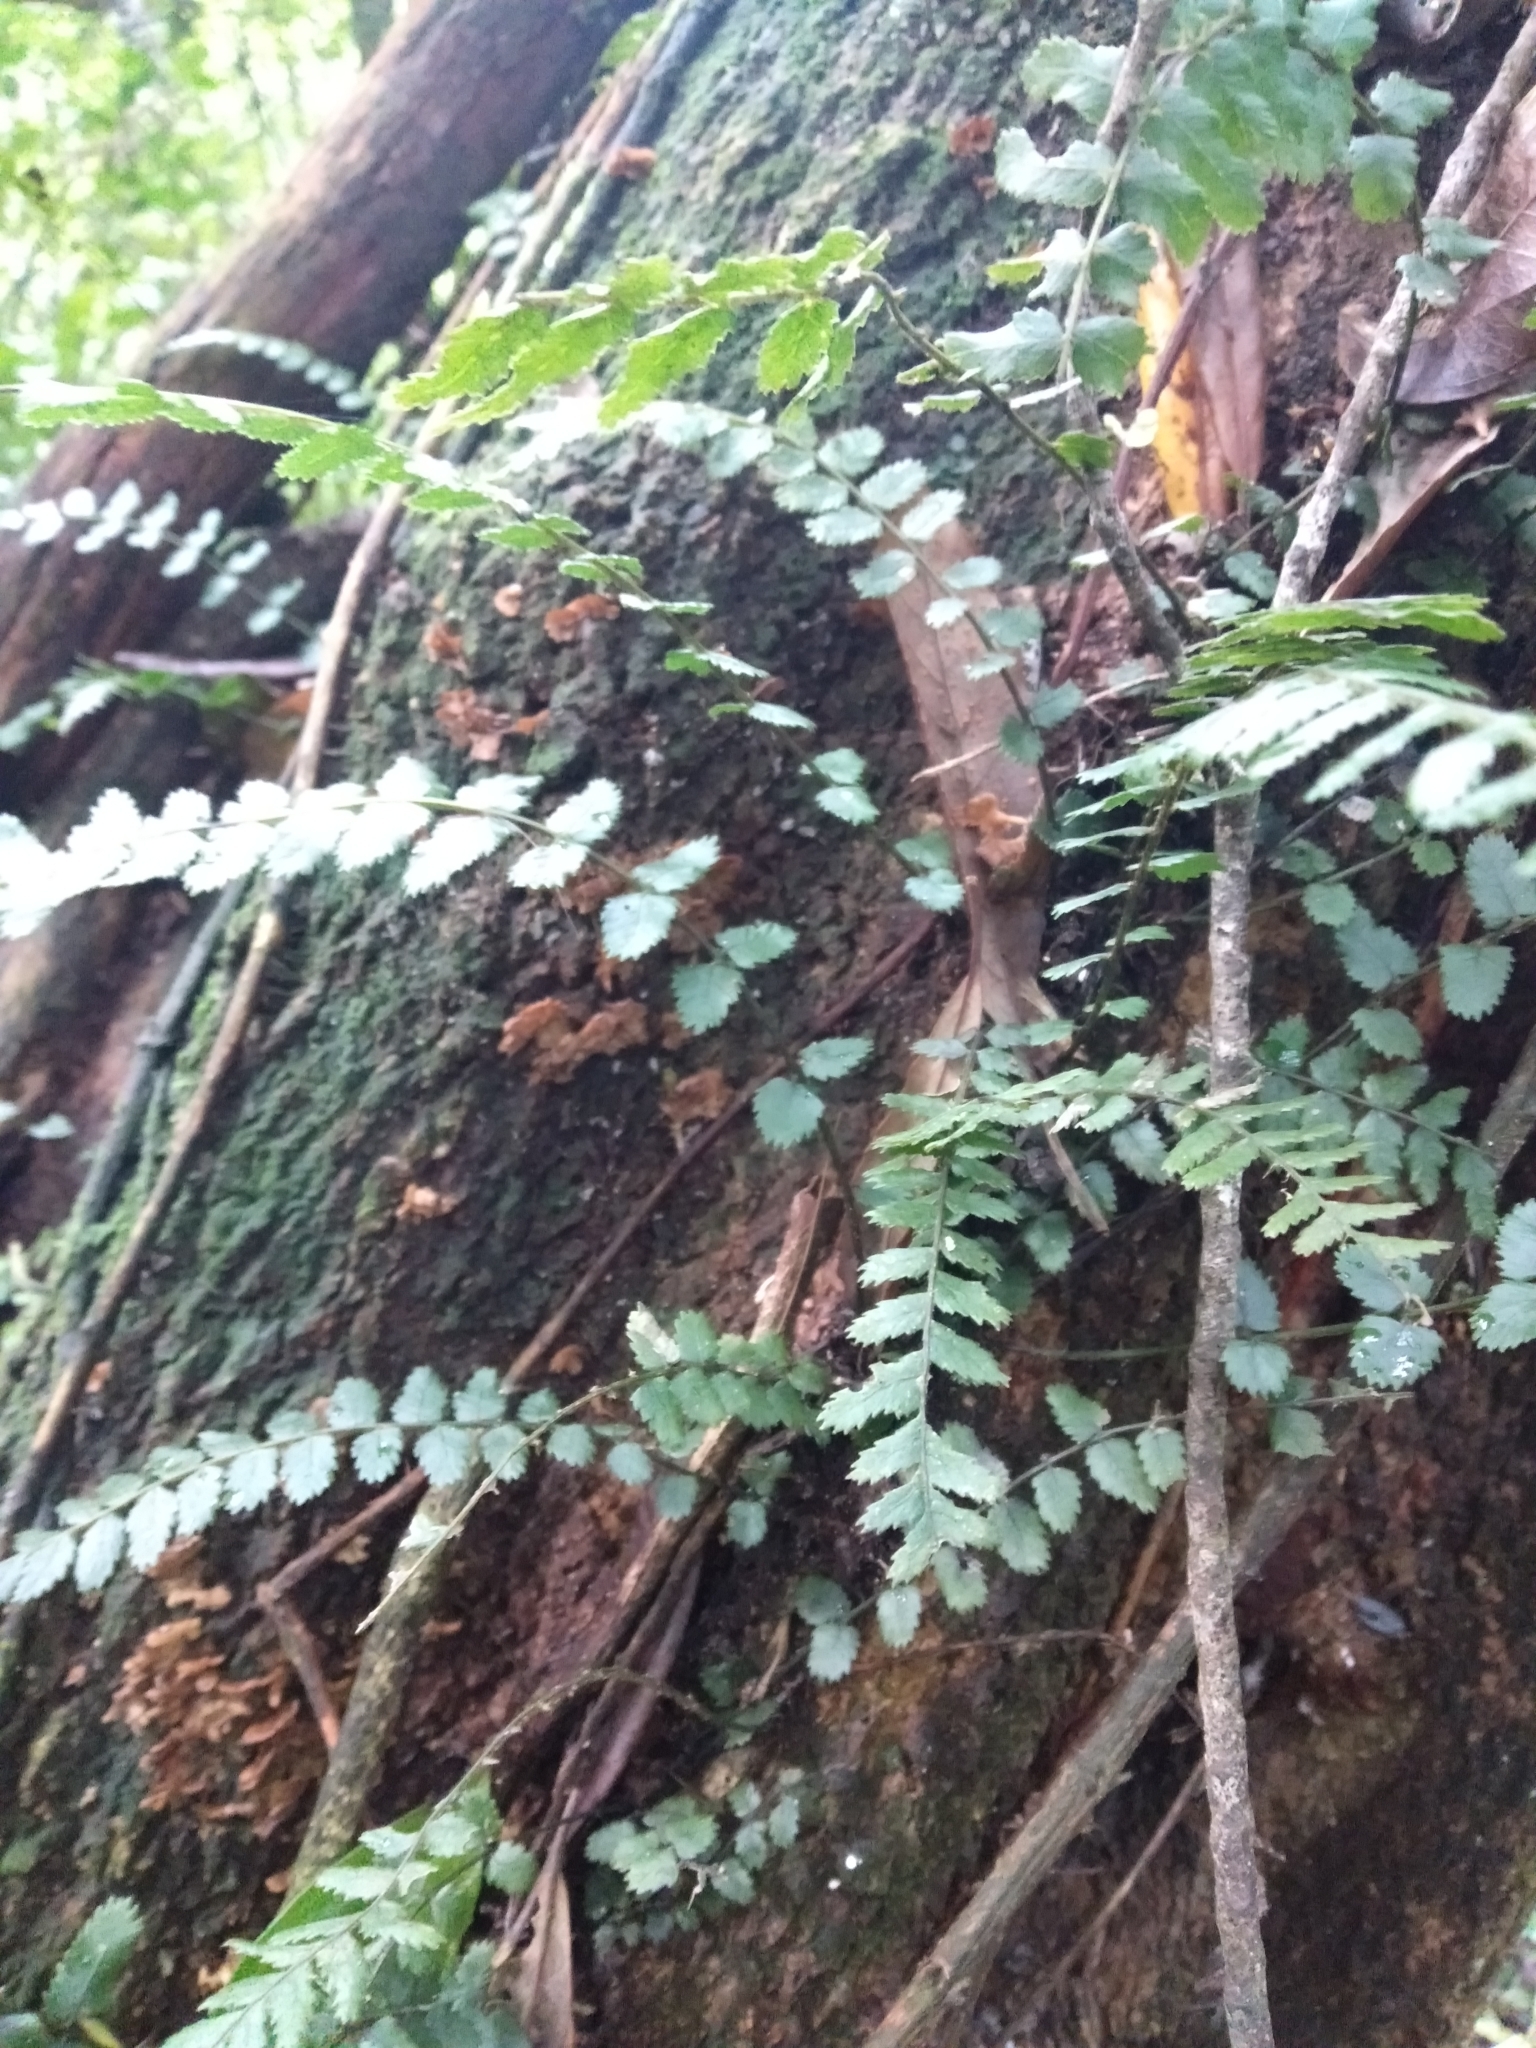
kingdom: Plantae
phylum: Tracheophyta
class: Polypodiopsida
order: Polypodiales
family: Blechnaceae
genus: Icarus
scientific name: Icarus filiformis
